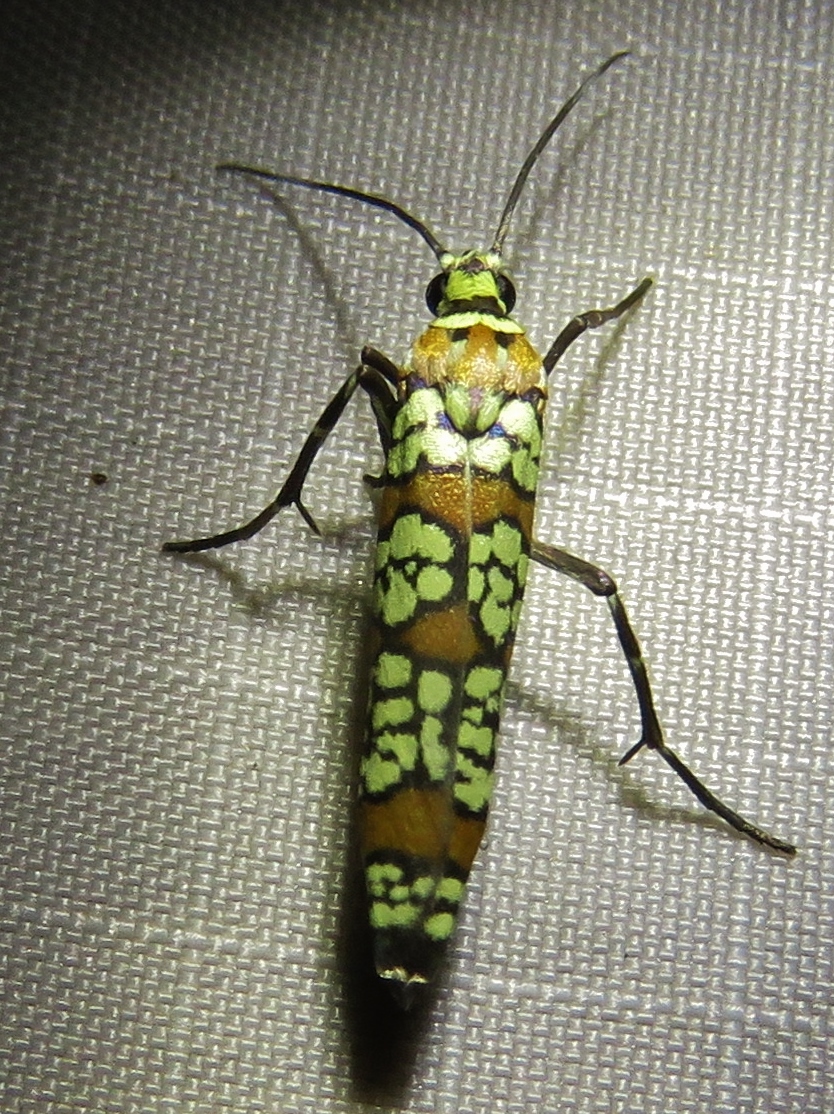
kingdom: Animalia
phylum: Arthropoda
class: Insecta
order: Lepidoptera
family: Attevidae
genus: Atteva
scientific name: Atteva punctella
